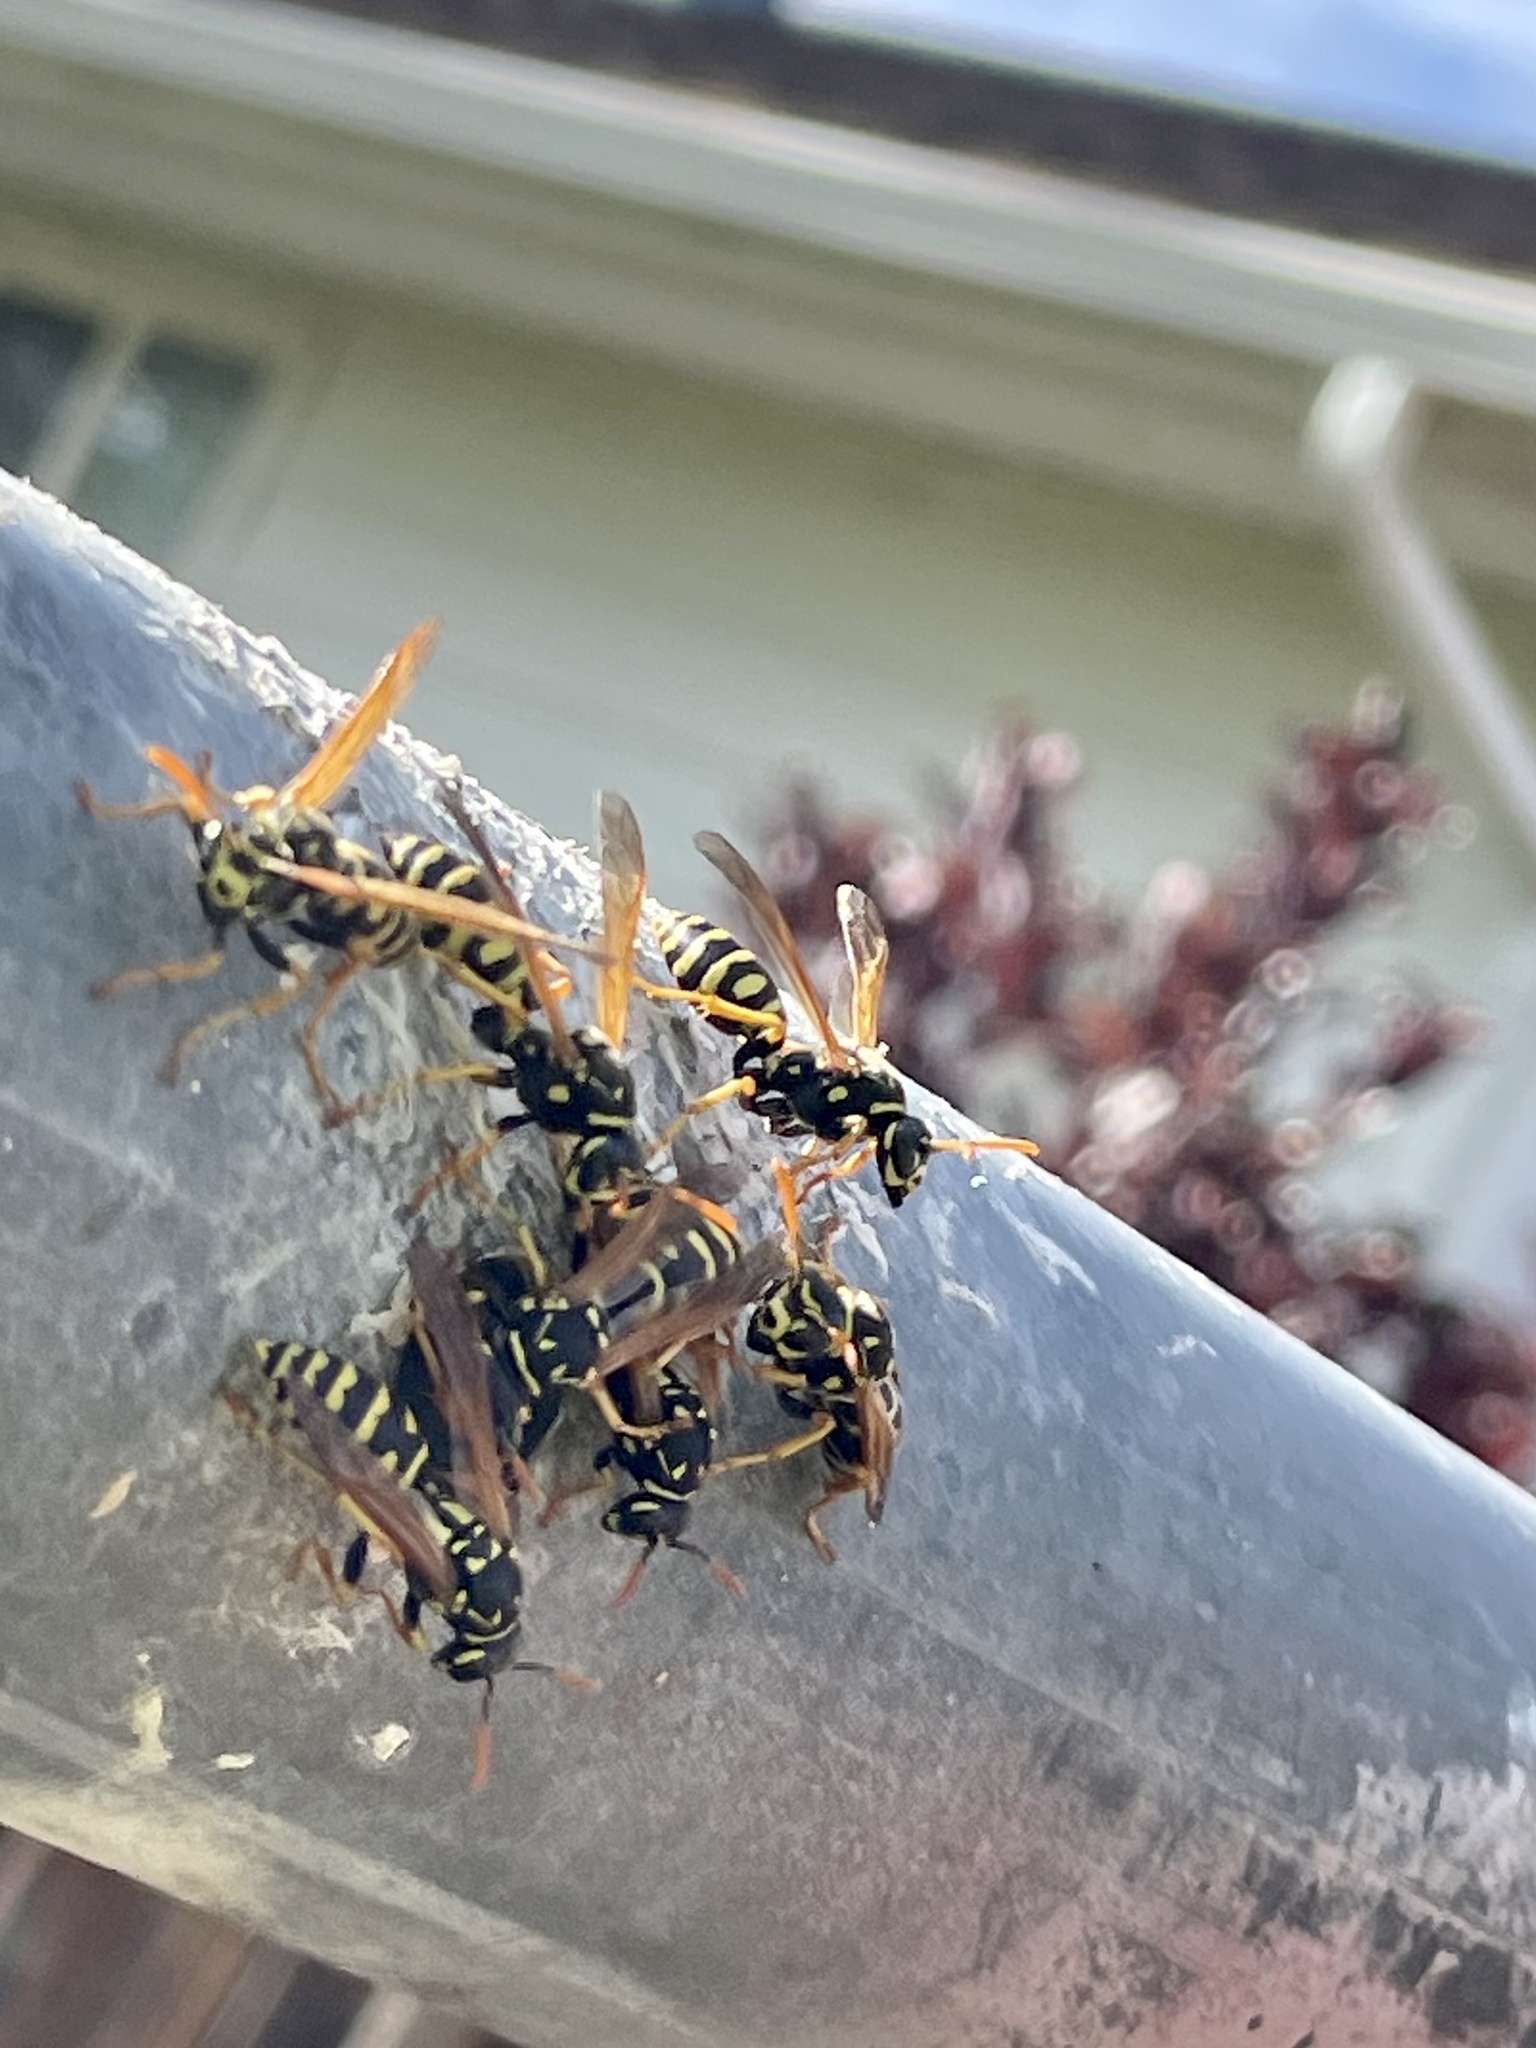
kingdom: Animalia
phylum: Arthropoda
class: Insecta
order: Hymenoptera
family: Eumenidae
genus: Polistes
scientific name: Polistes dominula
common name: Paper wasp
